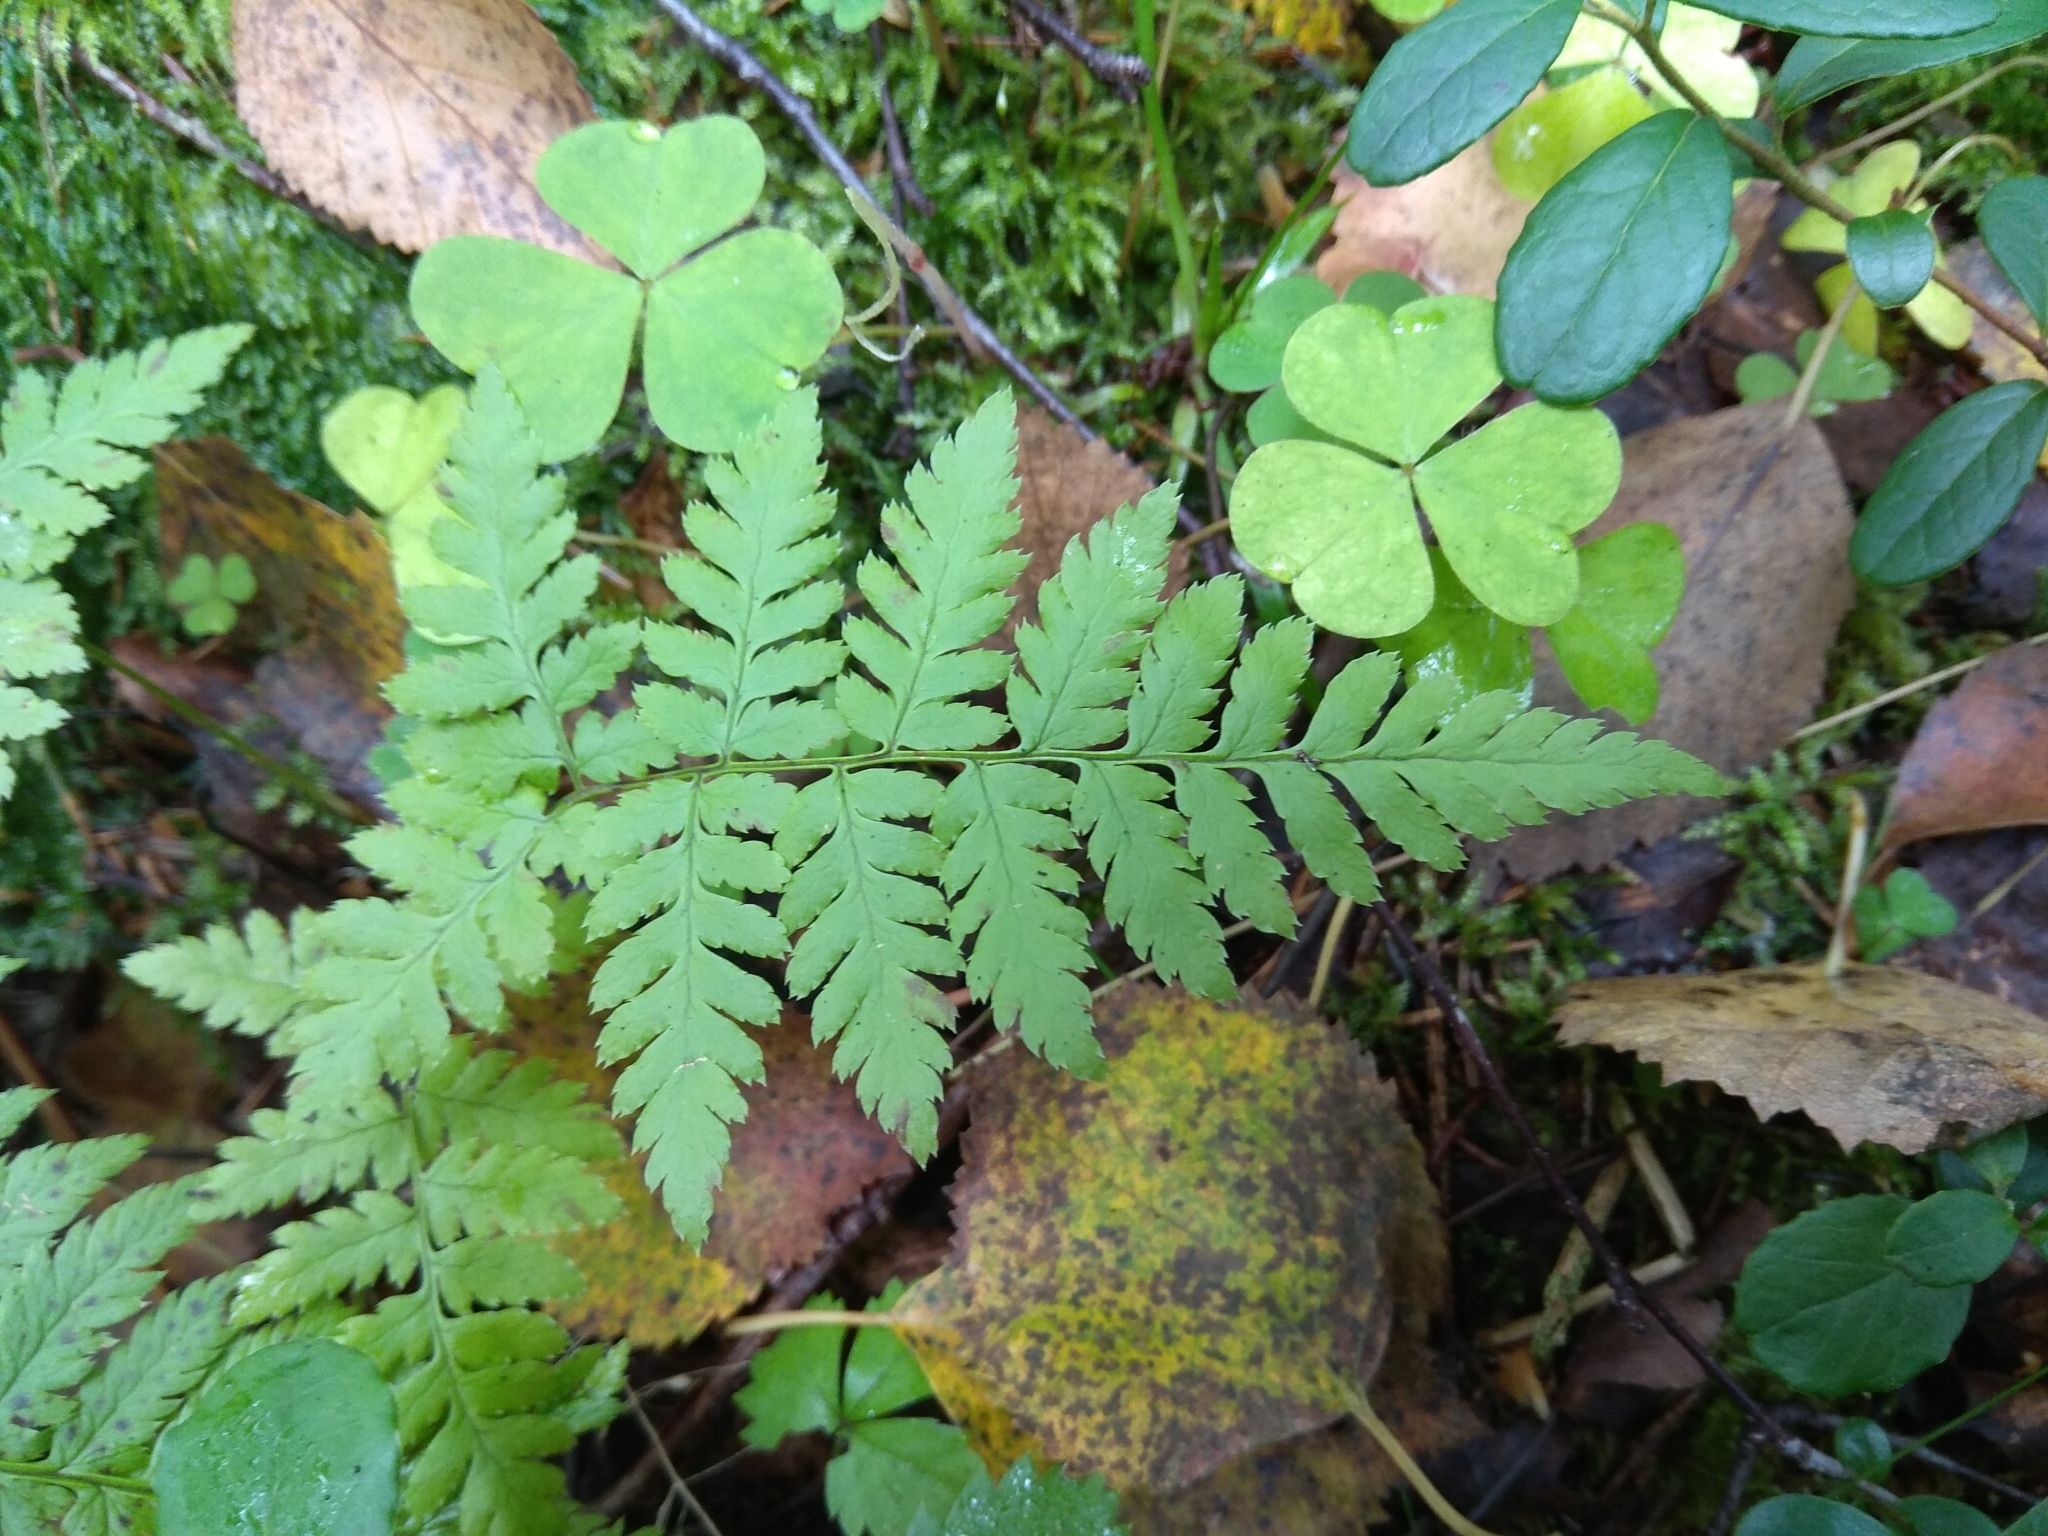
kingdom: Plantae
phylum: Tracheophyta
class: Polypodiopsida
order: Polypodiales
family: Dryopteridaceae
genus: Dryopteris
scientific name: Dryopteris carthusiana
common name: Narrow buckler-fern
